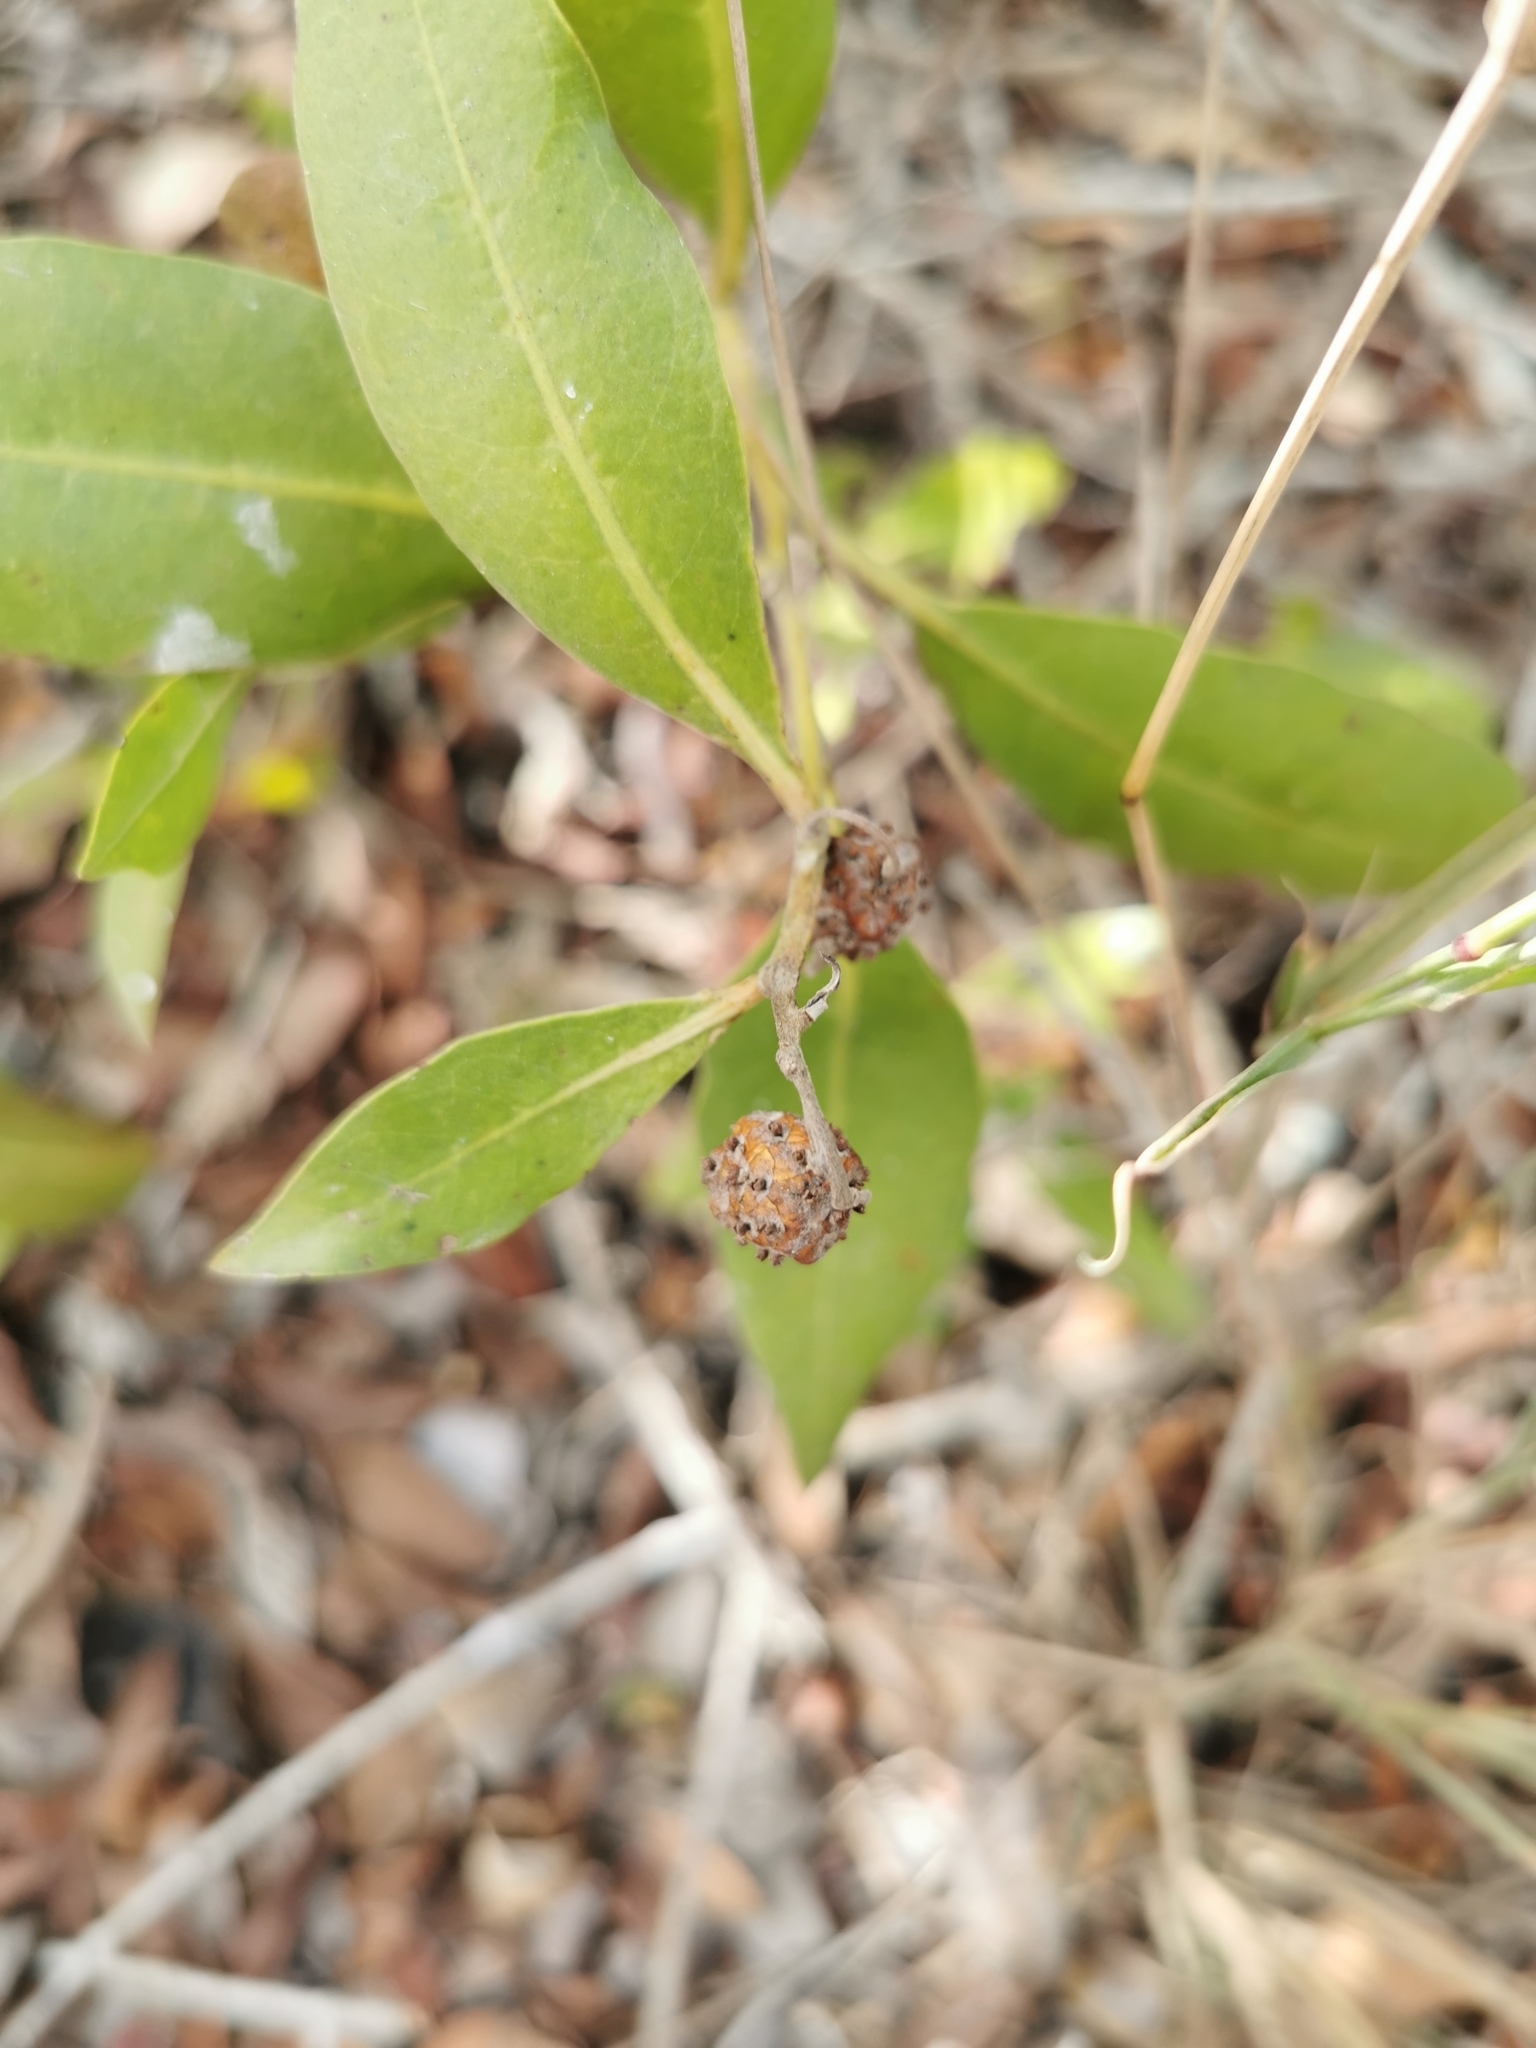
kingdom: Plantae
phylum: Tracheophyta
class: Magnoliopsida
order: Myrtales
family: Combretaceae
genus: Conocarpus
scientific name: Conocarpus erectus
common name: Button mangrove
